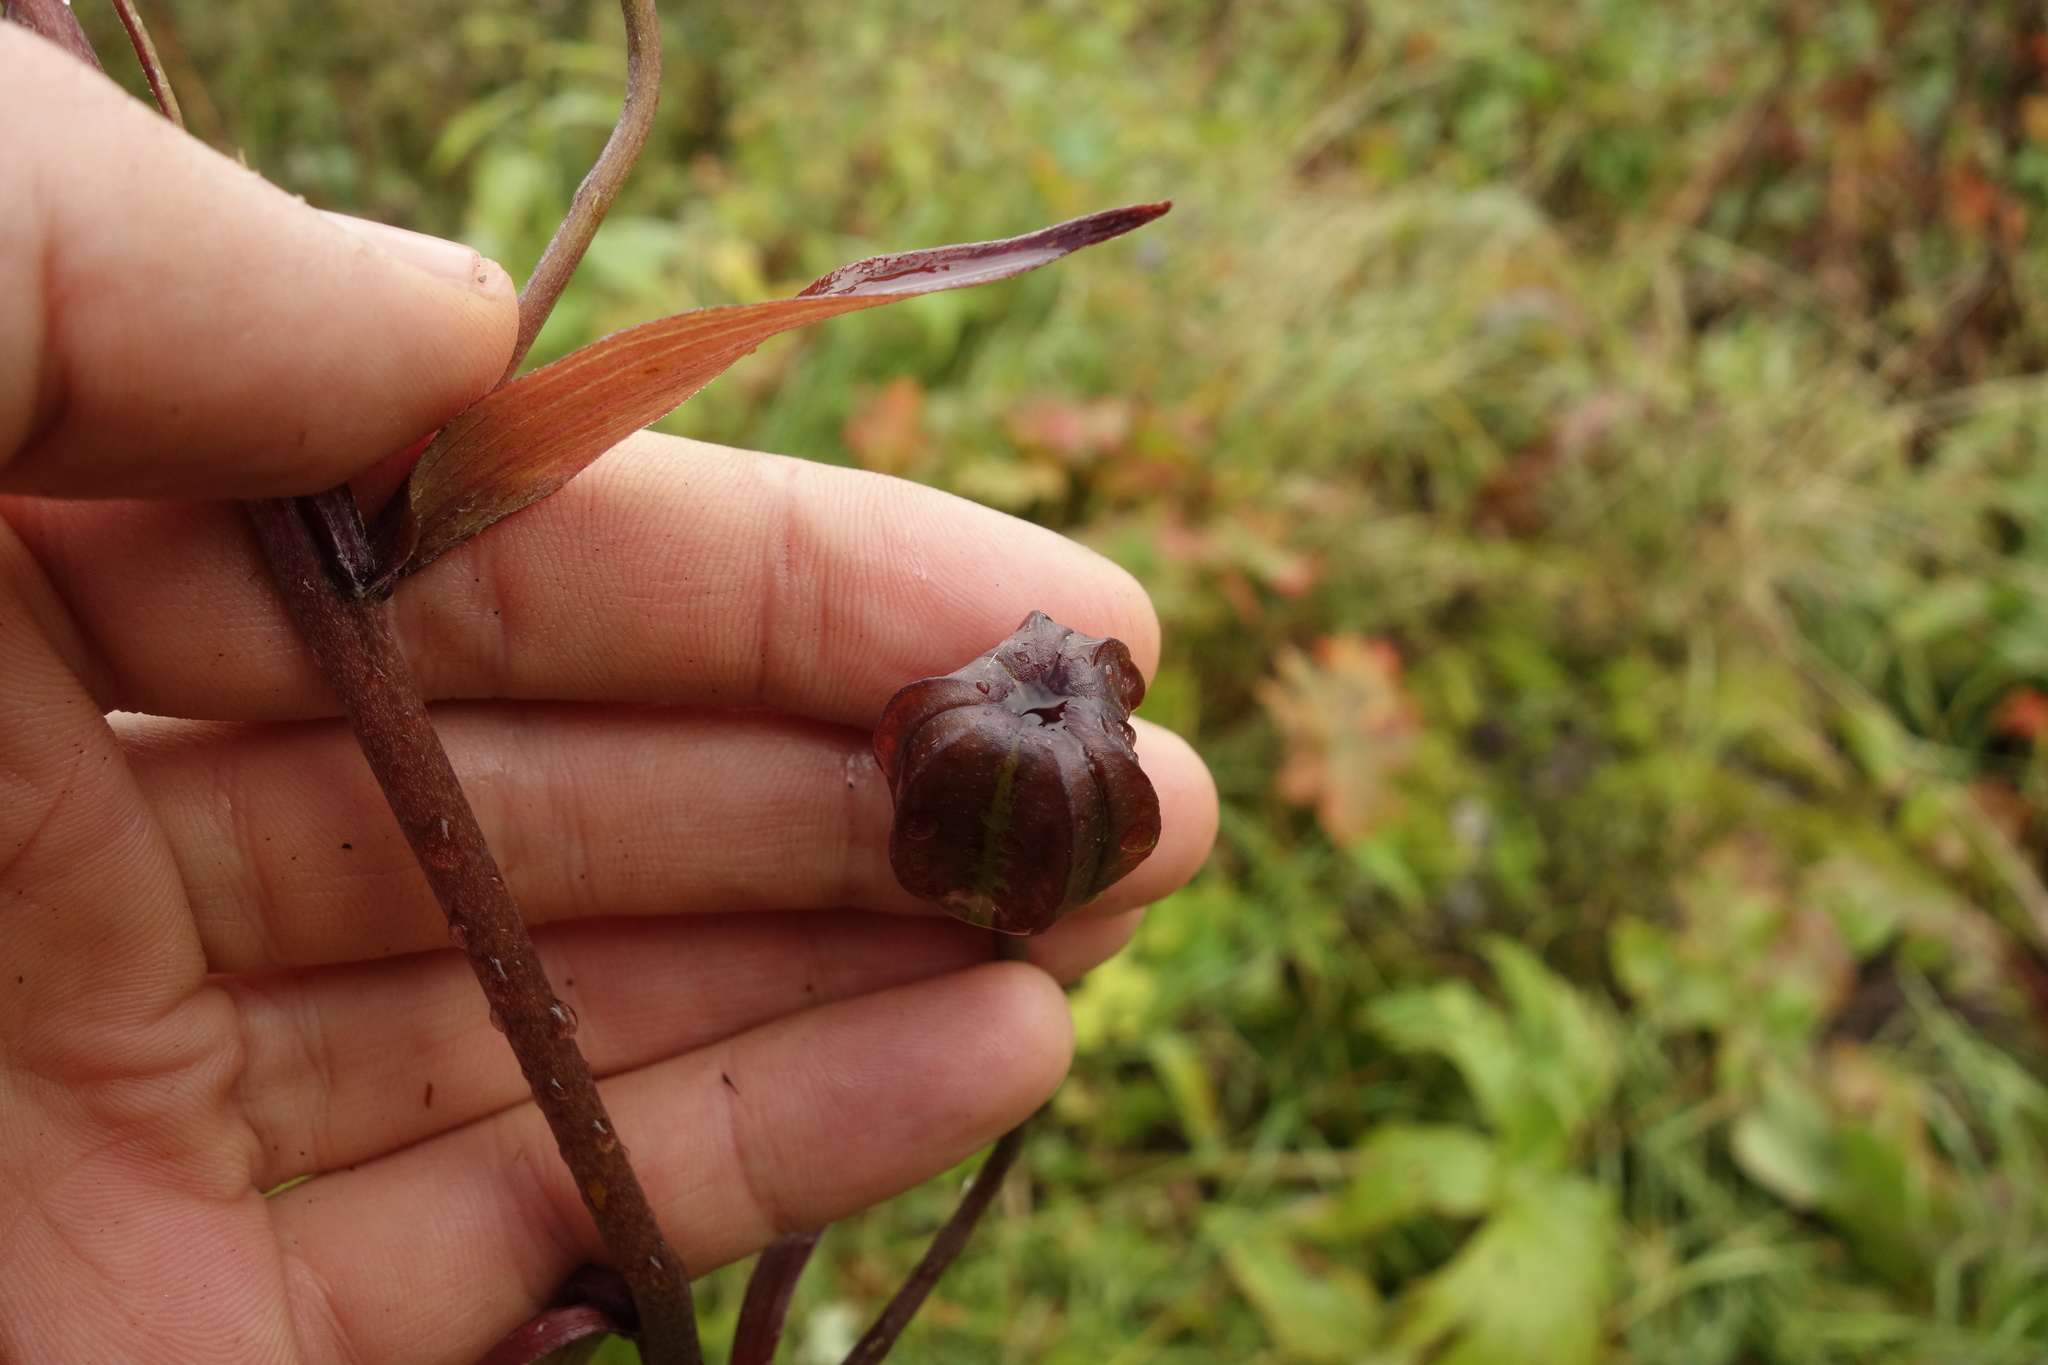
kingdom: Plantae
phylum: Tracheophyta
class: Liliopsida
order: Liliales
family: Liliaceae
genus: Lilium
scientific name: Lilium martagon
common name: Martagon lily
